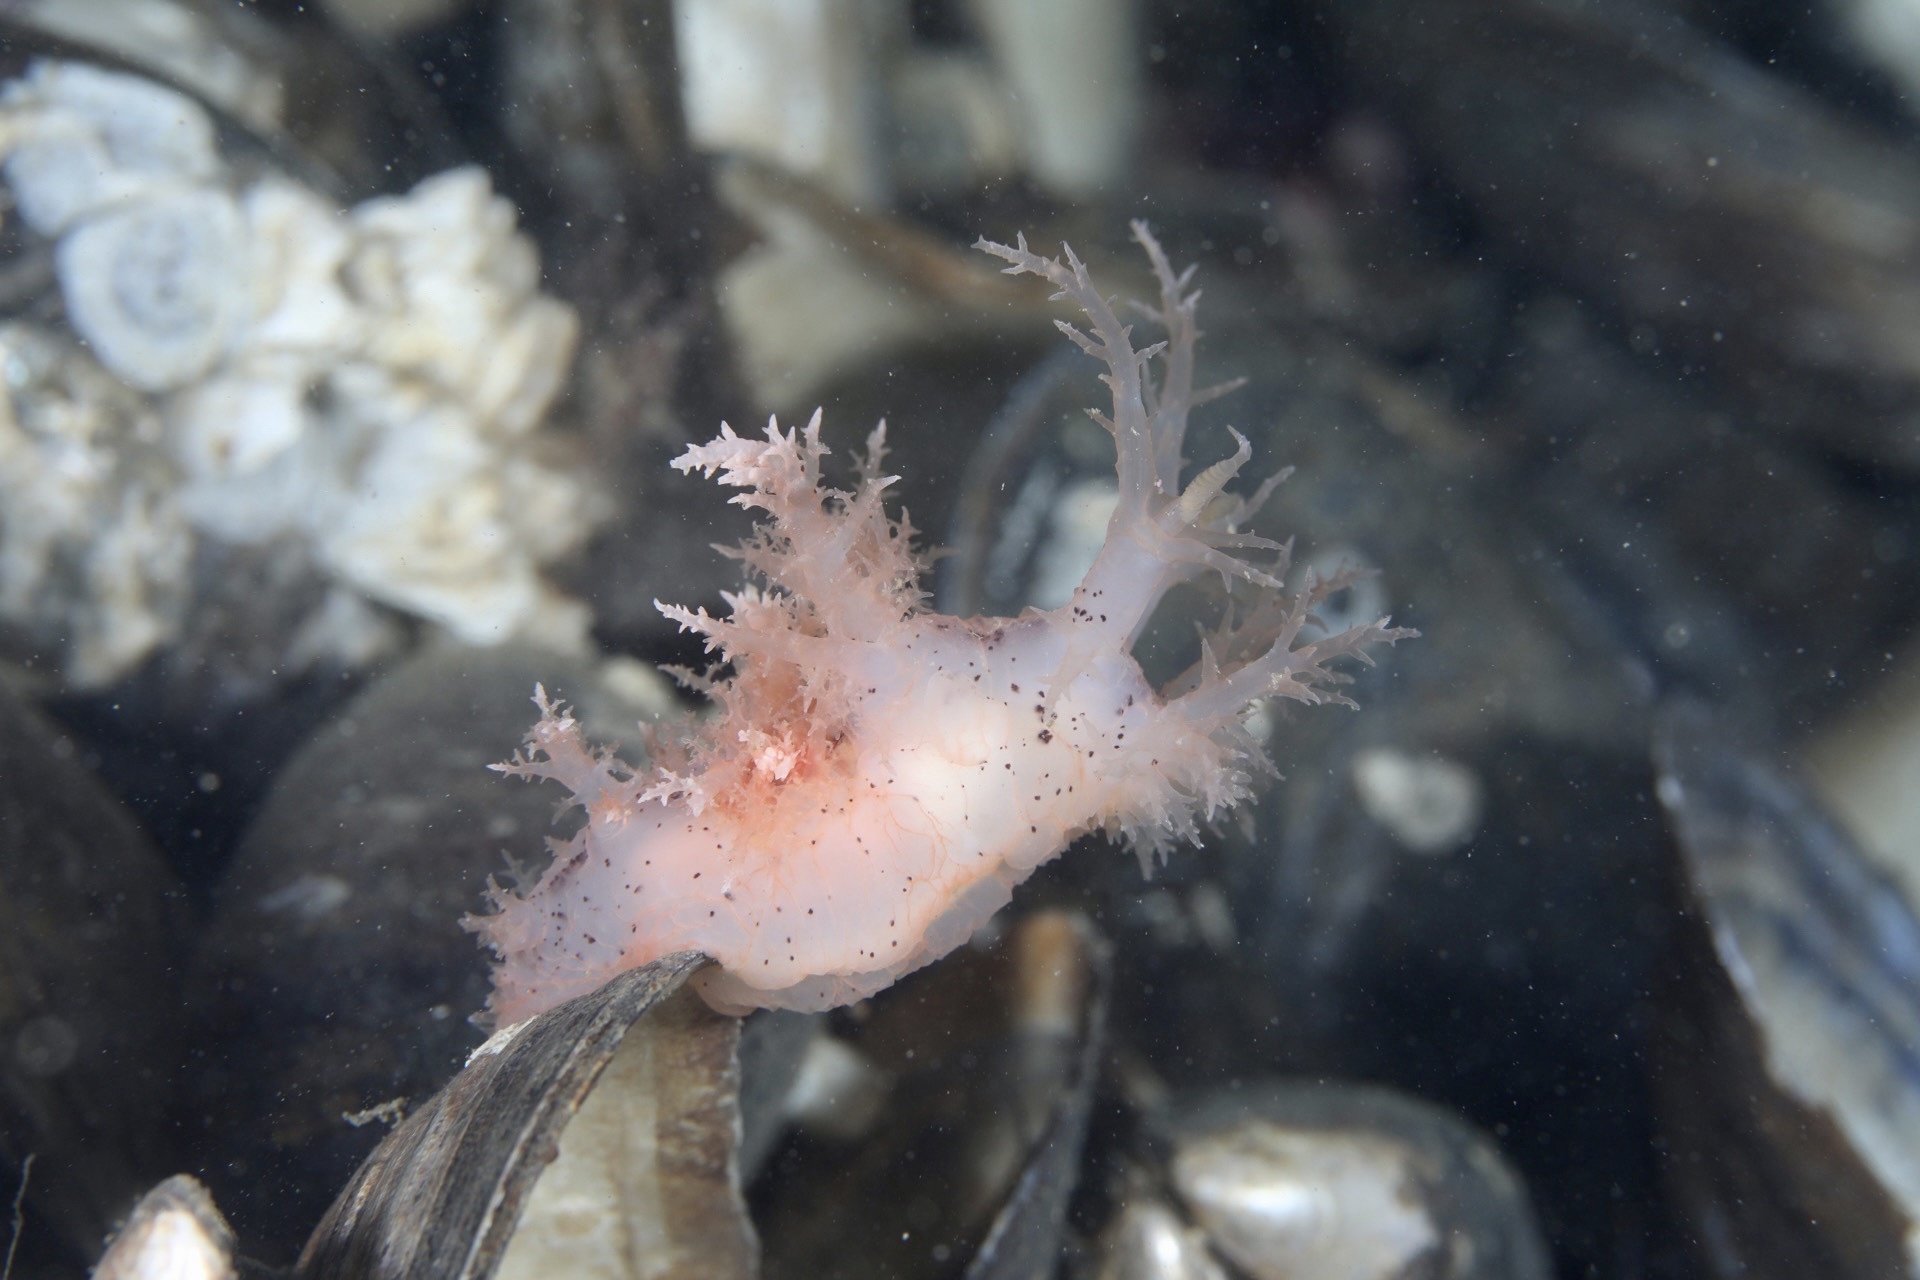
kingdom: Animalia
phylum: Mollusca
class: Gastropoda
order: Nudibranchia
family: Dendronotidae
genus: Dendronotus
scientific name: Dendronotus europaeus
